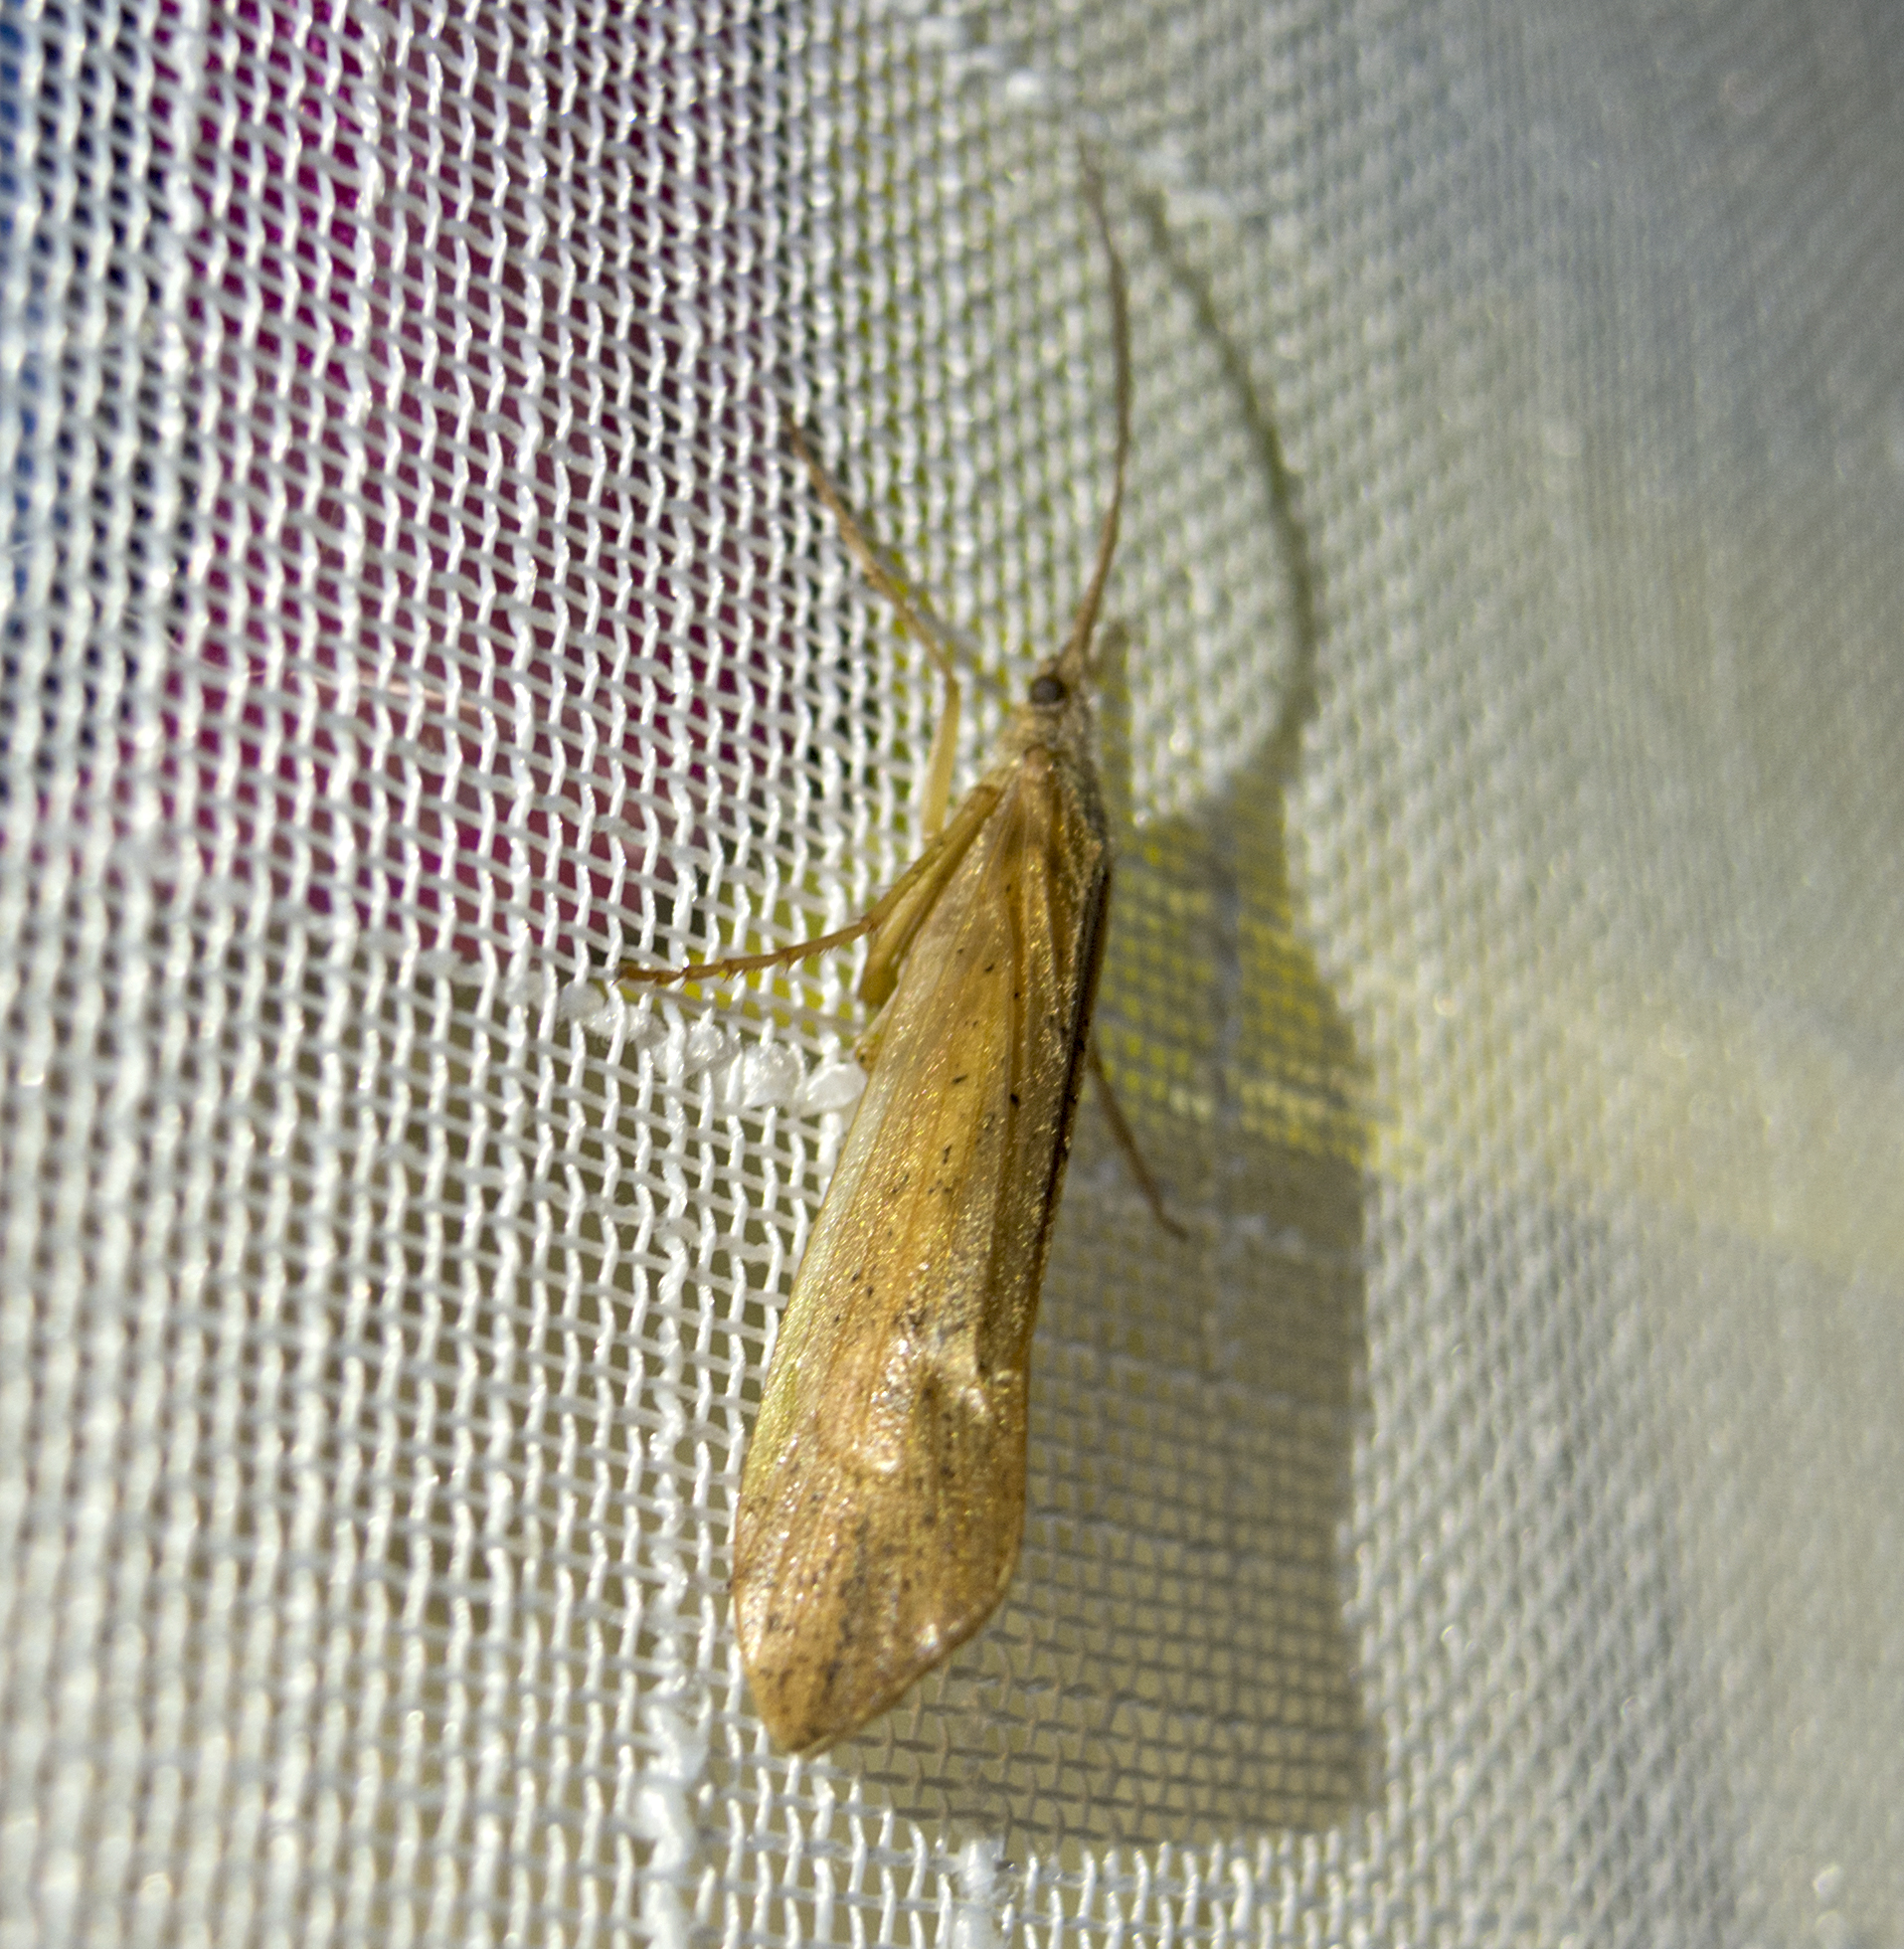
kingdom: Animalia
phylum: Arthropoda
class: Insecta
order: Trichoptera
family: Limnephilidae
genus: Grammotaulius
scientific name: Grammotaulius nigropunctatus
